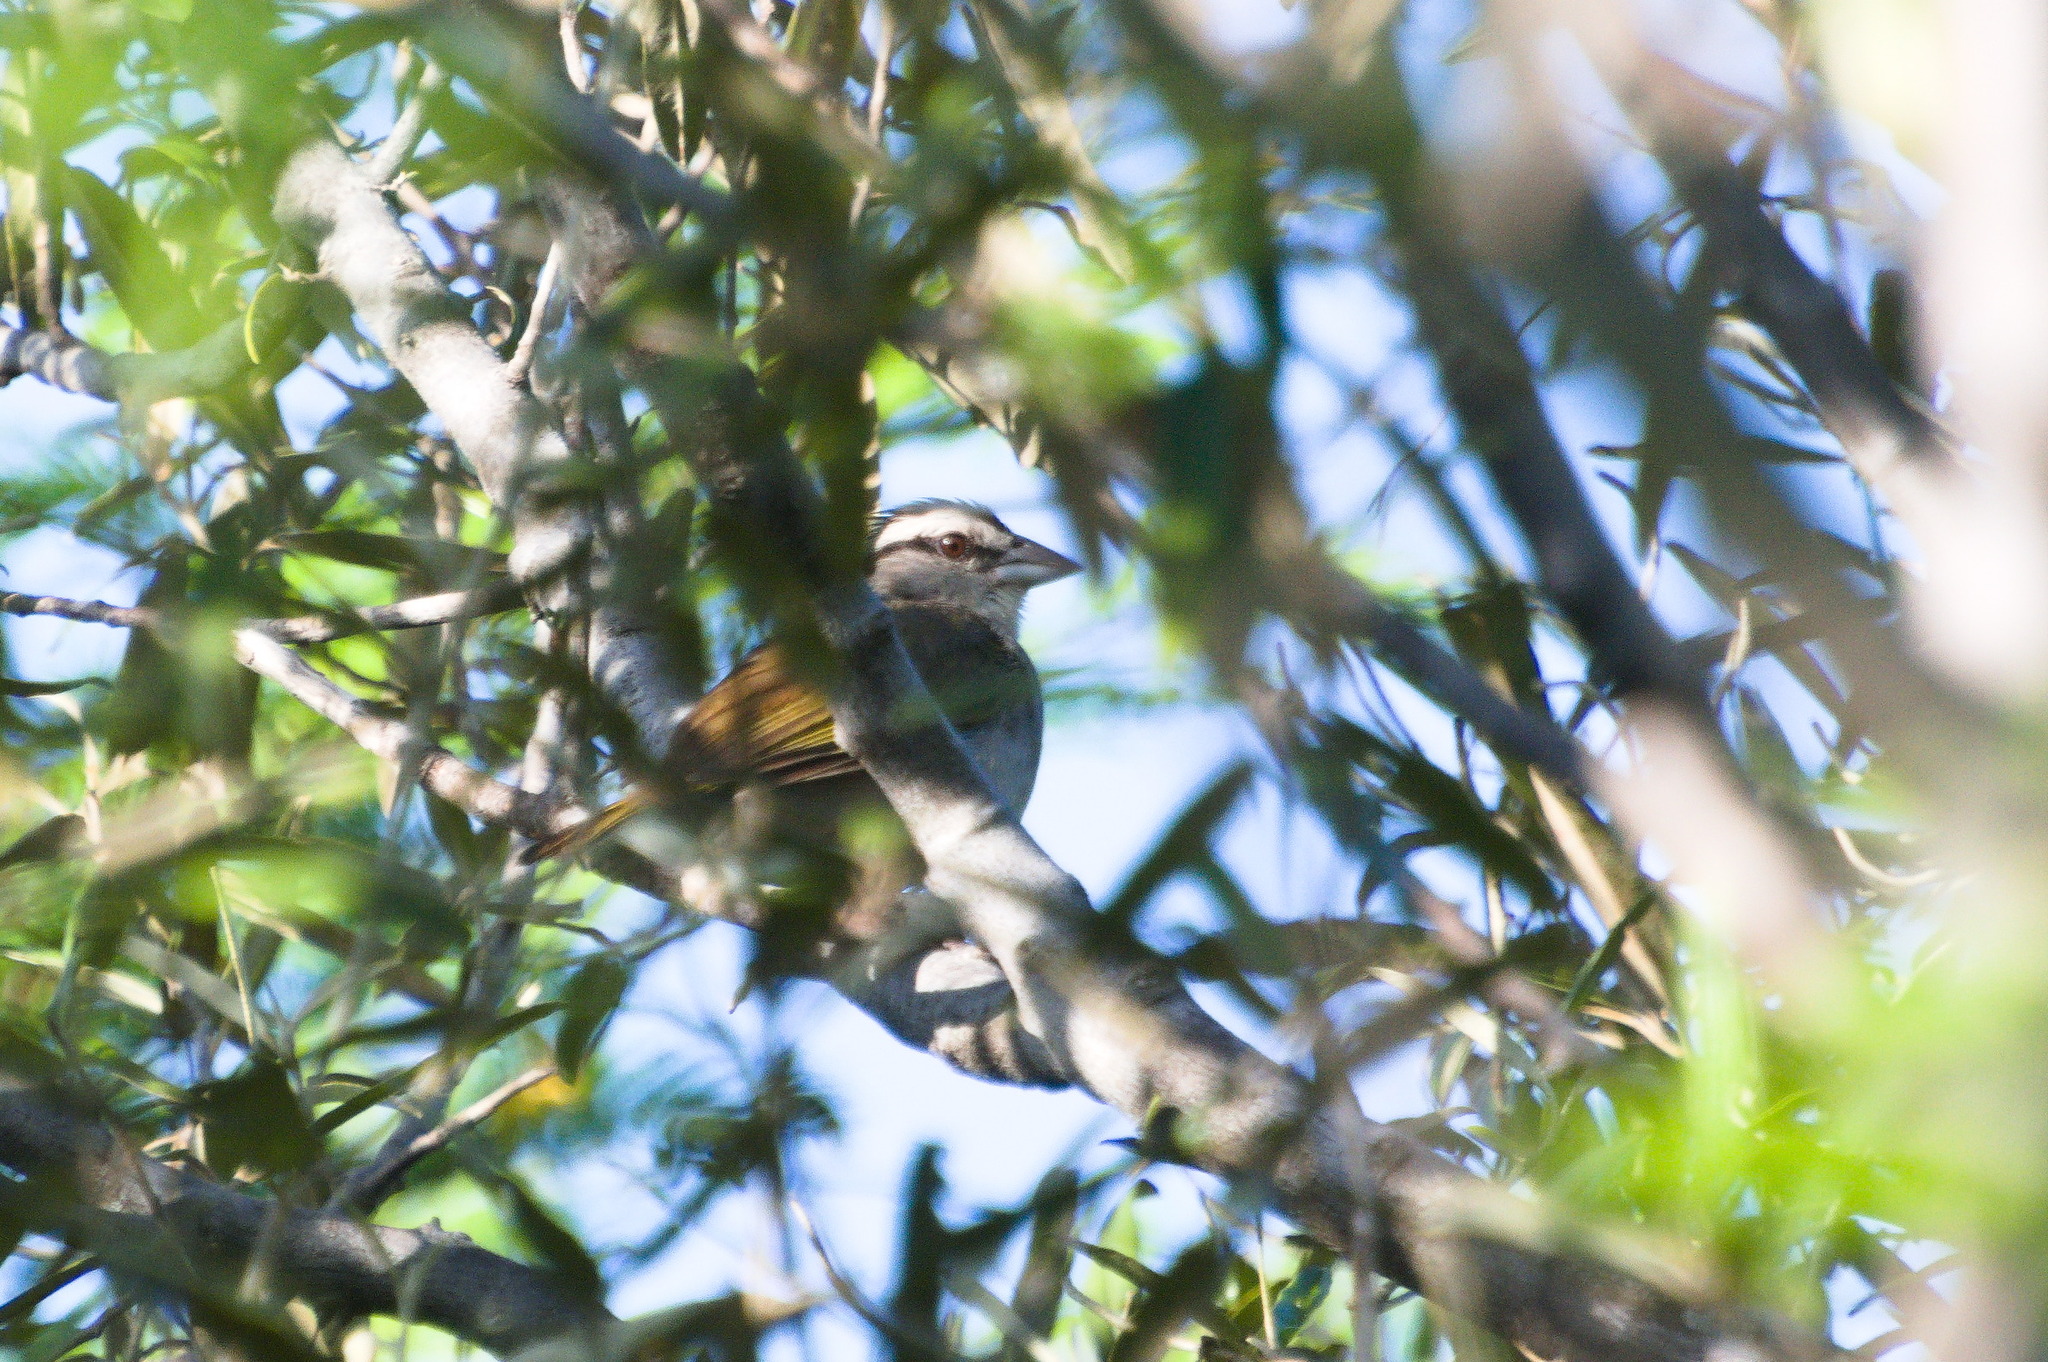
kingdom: Animalia
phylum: Chordata
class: Aves
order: Passeriformes
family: Passerellidae
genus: Arremonops
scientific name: Arremonops tocuyensis
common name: Tocuyo sparrow
